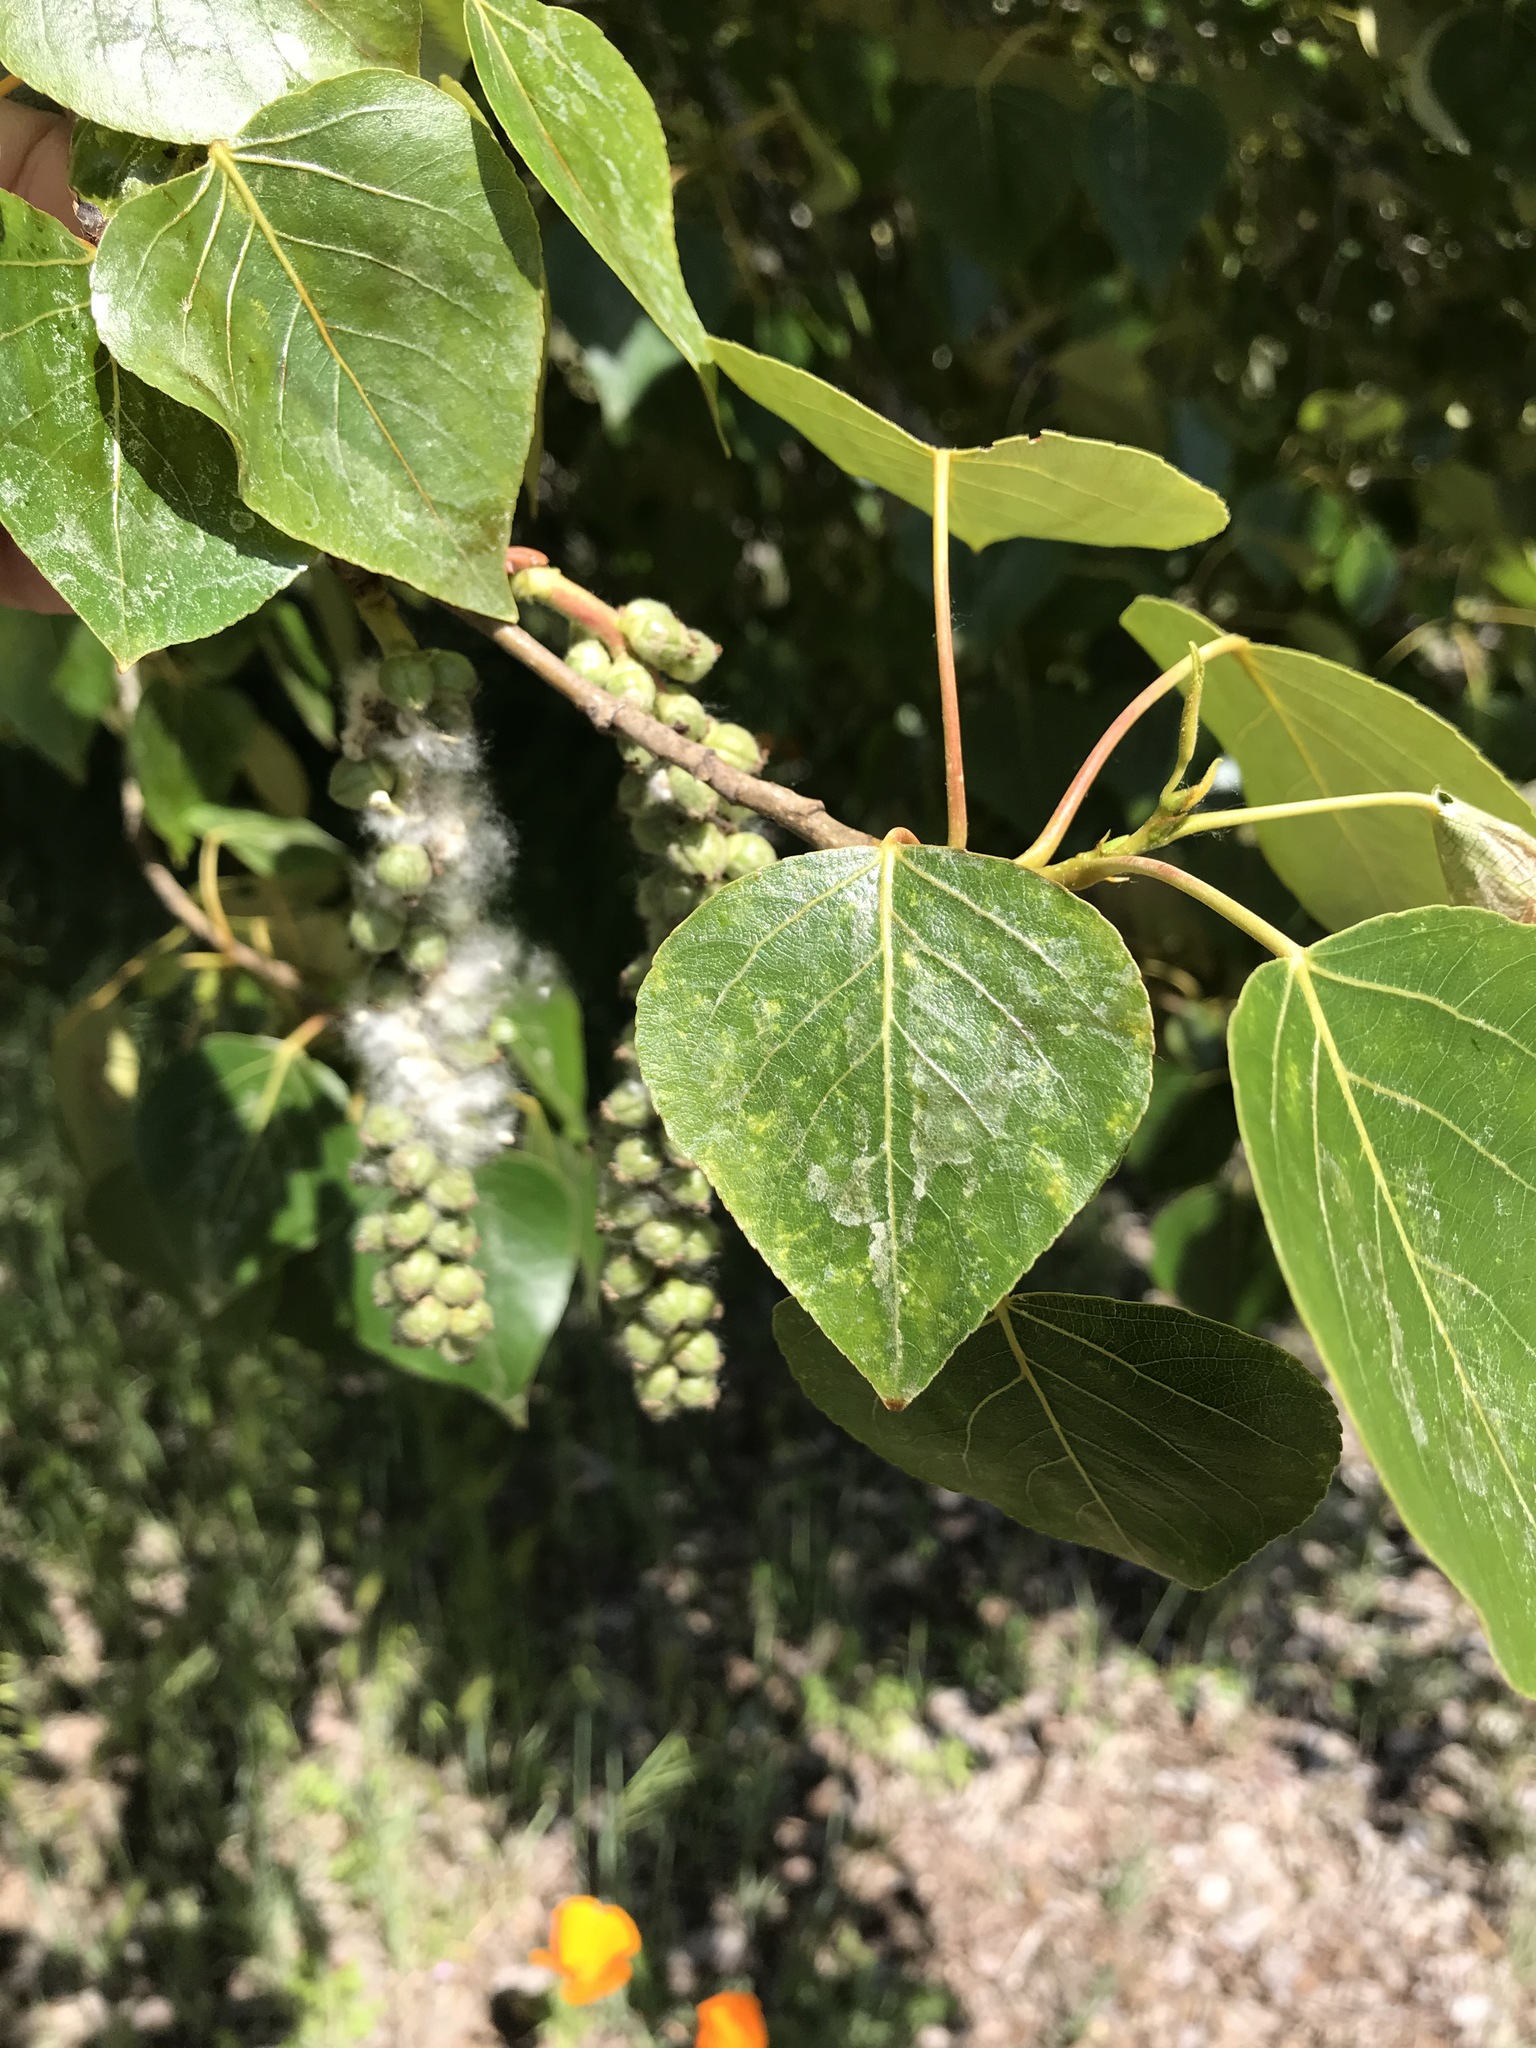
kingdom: Plantae
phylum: Tracheophyta
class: Magnoliopsida
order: Malpighiales
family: Salicaceae
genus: Populus
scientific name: Populus trichocarpa
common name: Black cottonwood
